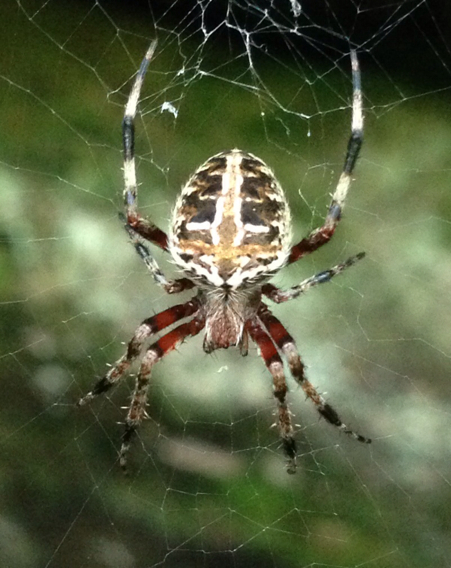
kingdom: Animalia
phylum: Arthropoda
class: Arachnida
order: Araneae
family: Araneidae
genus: Neoscona
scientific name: Neoscona domiciliorum
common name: Red-femured spotted orbweaver
